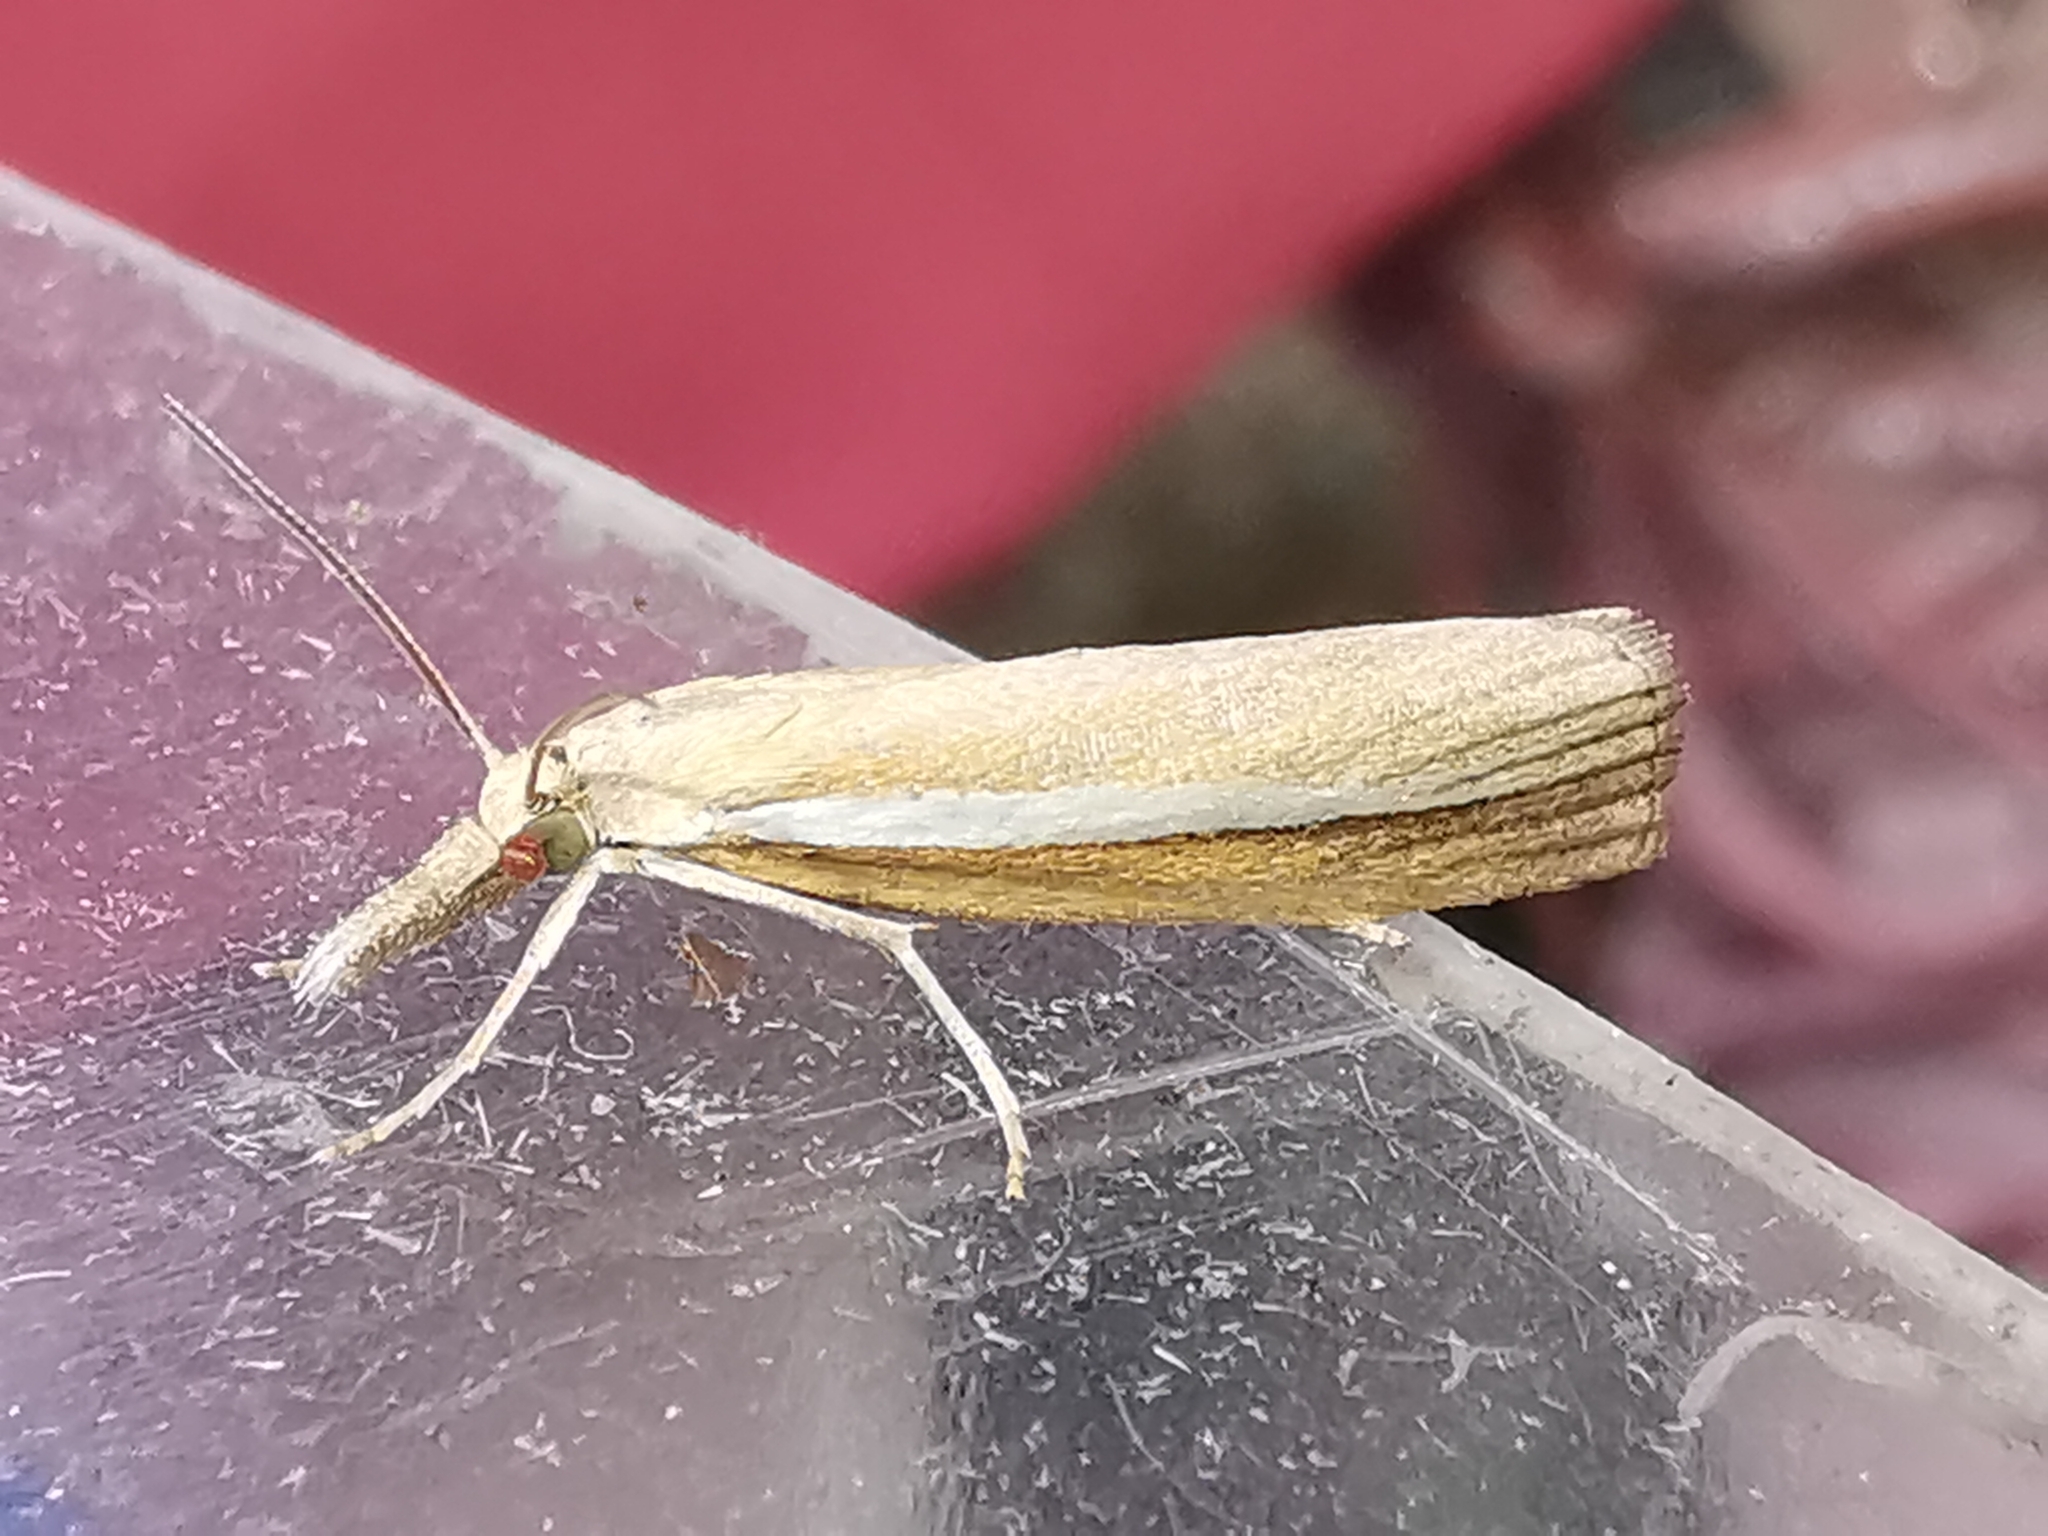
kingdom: Animalia
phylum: Arthropoda
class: Insecta
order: Lepidoptera
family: Crambidae
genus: Agriphila
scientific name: Agriphila selasella
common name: Pale-streak grass-veneer
